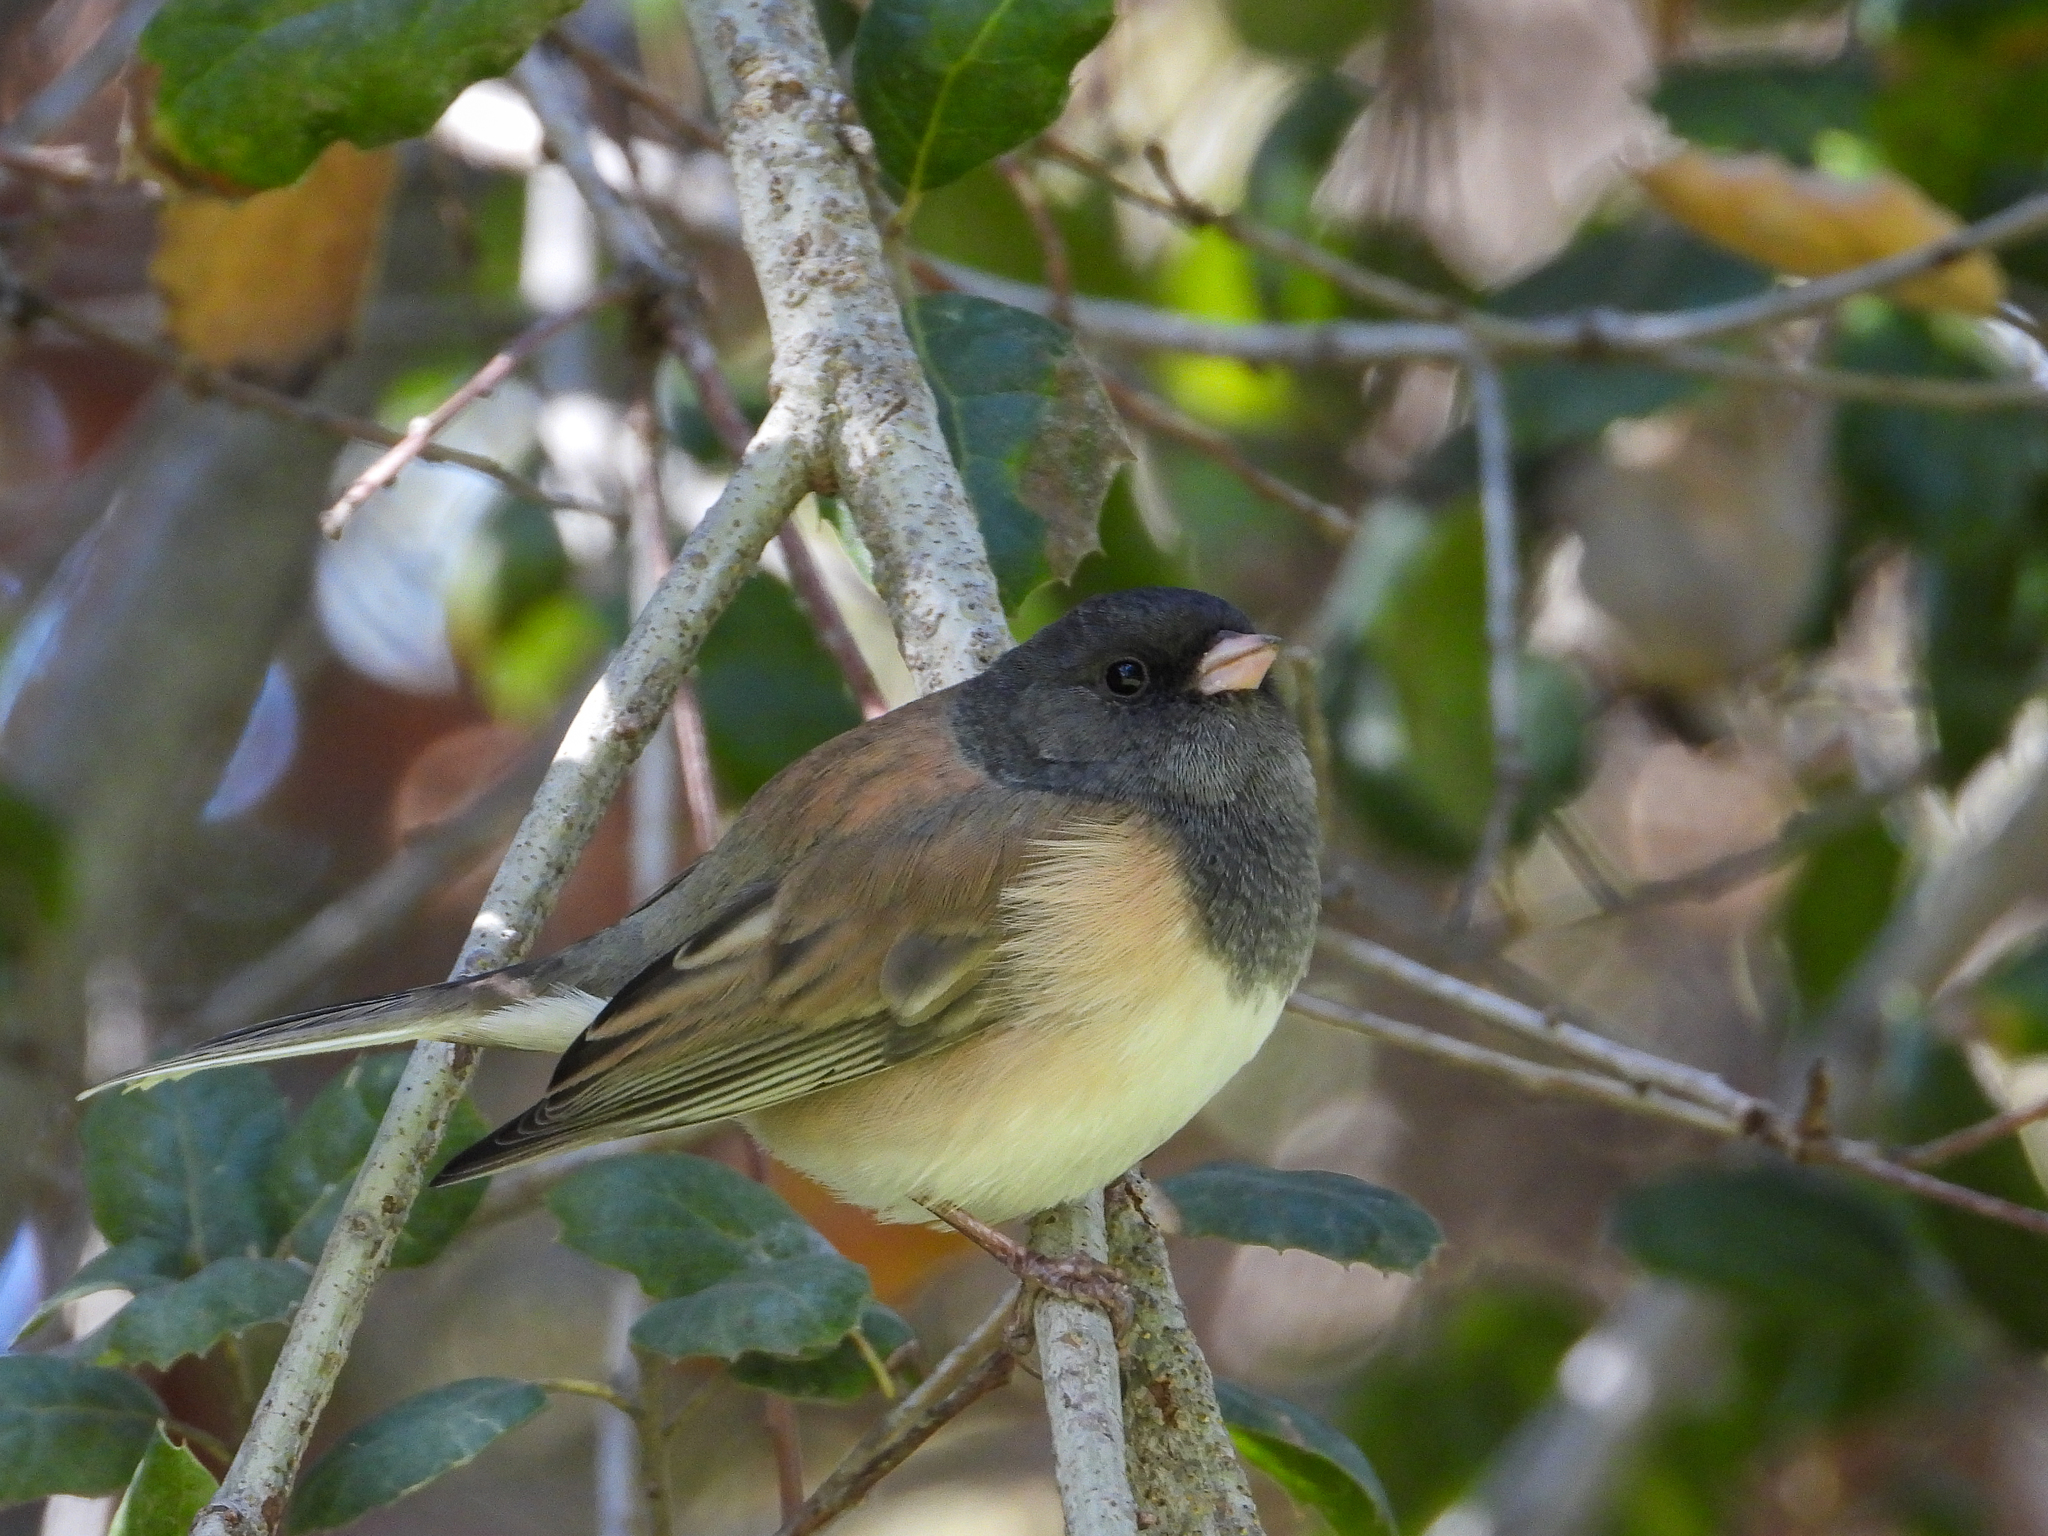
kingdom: Animalia
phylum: Chordata
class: Aves
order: Passeriformes
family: Passerellidae
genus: Junco
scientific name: Junco hyemalis
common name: Dark-eyed junco
